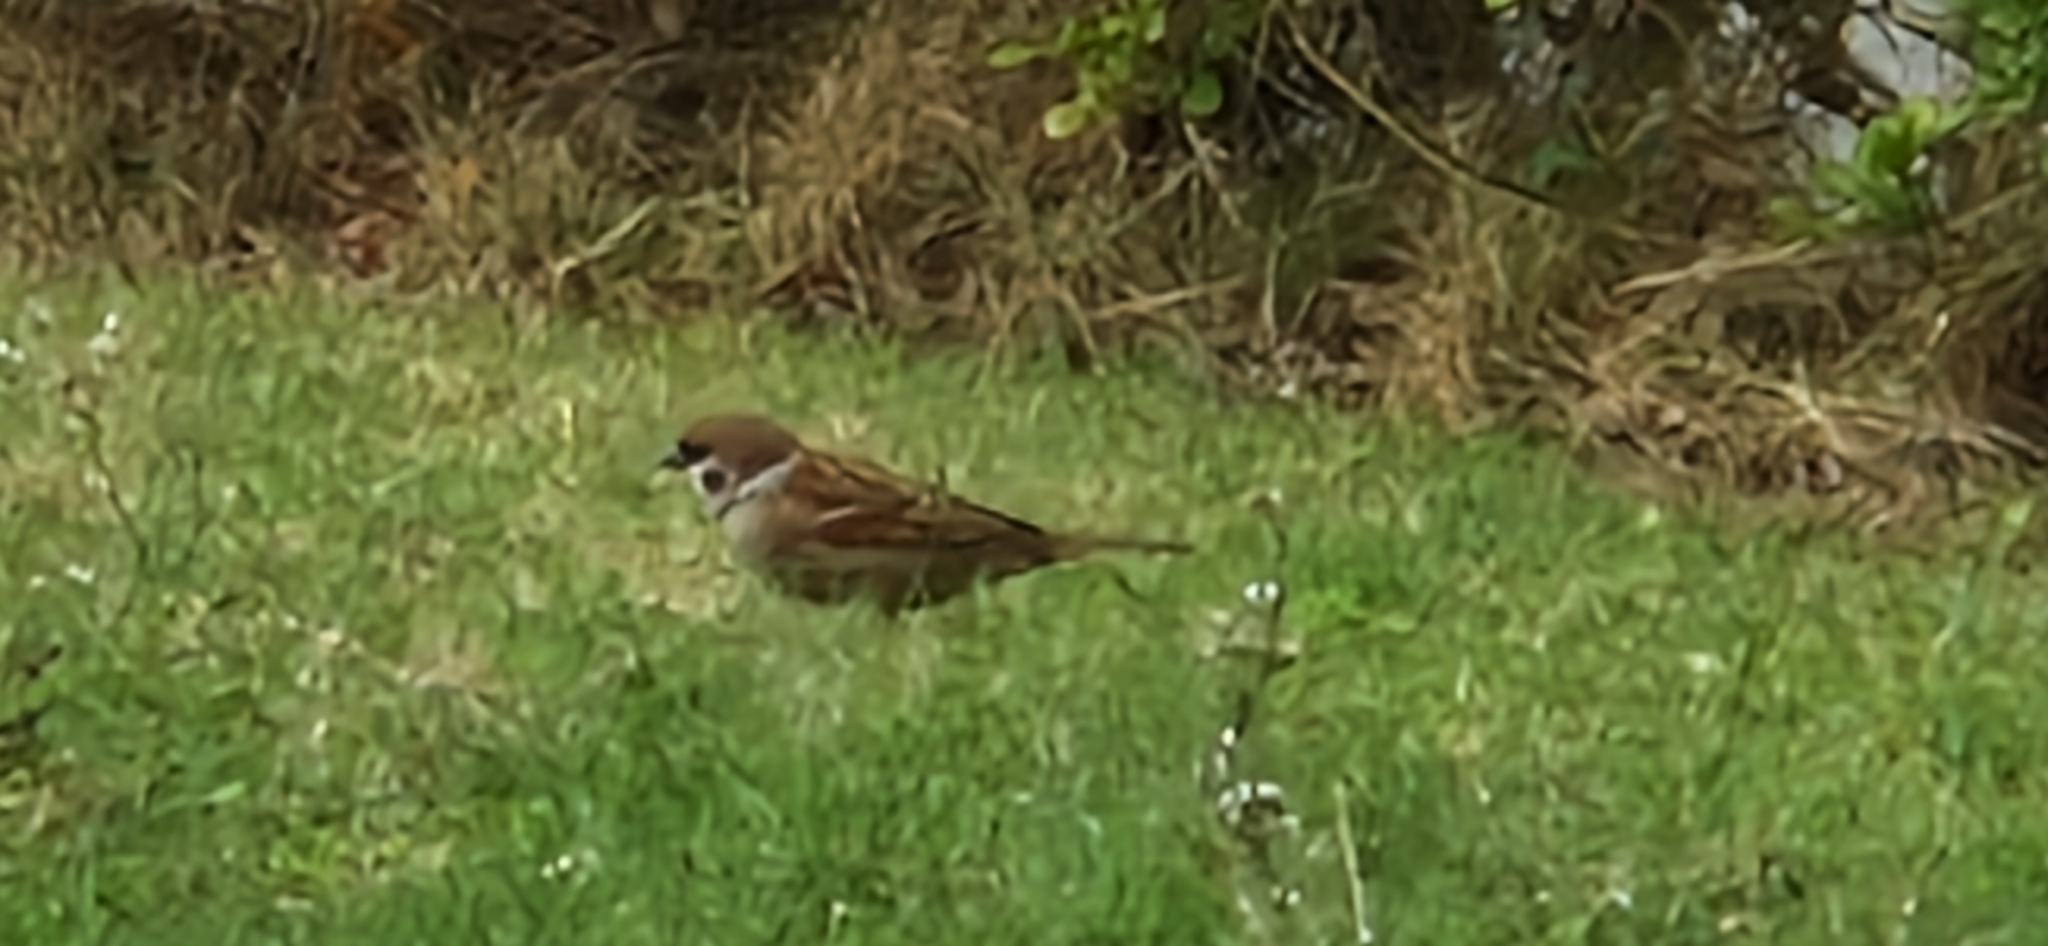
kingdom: Animalia
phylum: Chordata
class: Aves
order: Passeriformes
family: Passeridae
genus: Passer
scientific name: Passer montanus
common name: Eurasian tree sparrow
